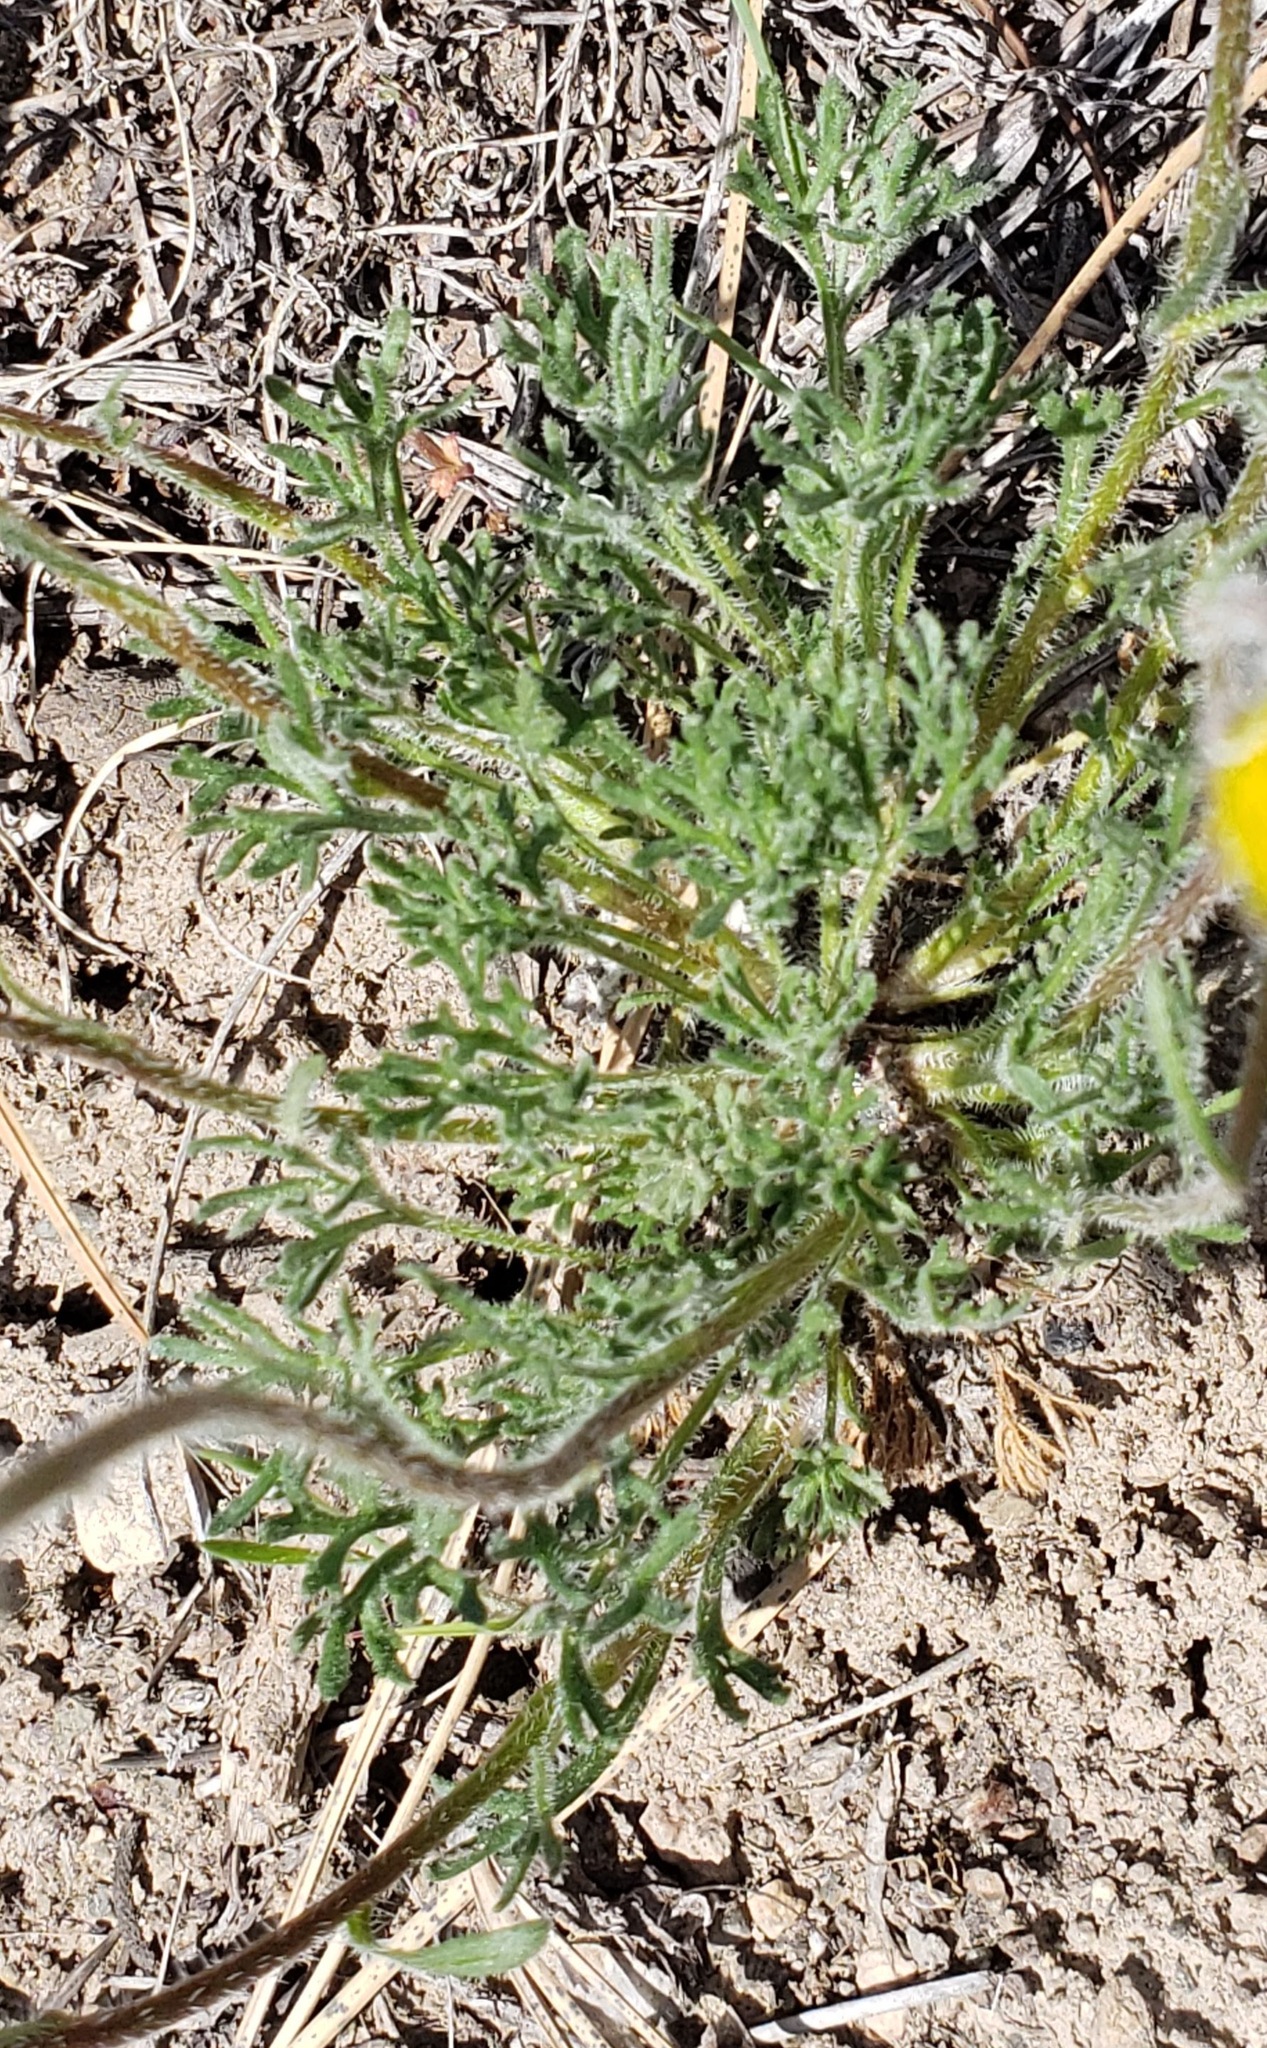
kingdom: Plantae
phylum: Tracheophyta
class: Magnoliopsida
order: Asterales
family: Asteraceae
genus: Erigeron
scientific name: Erigeron compositus
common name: Dwarf mountain fleabane
